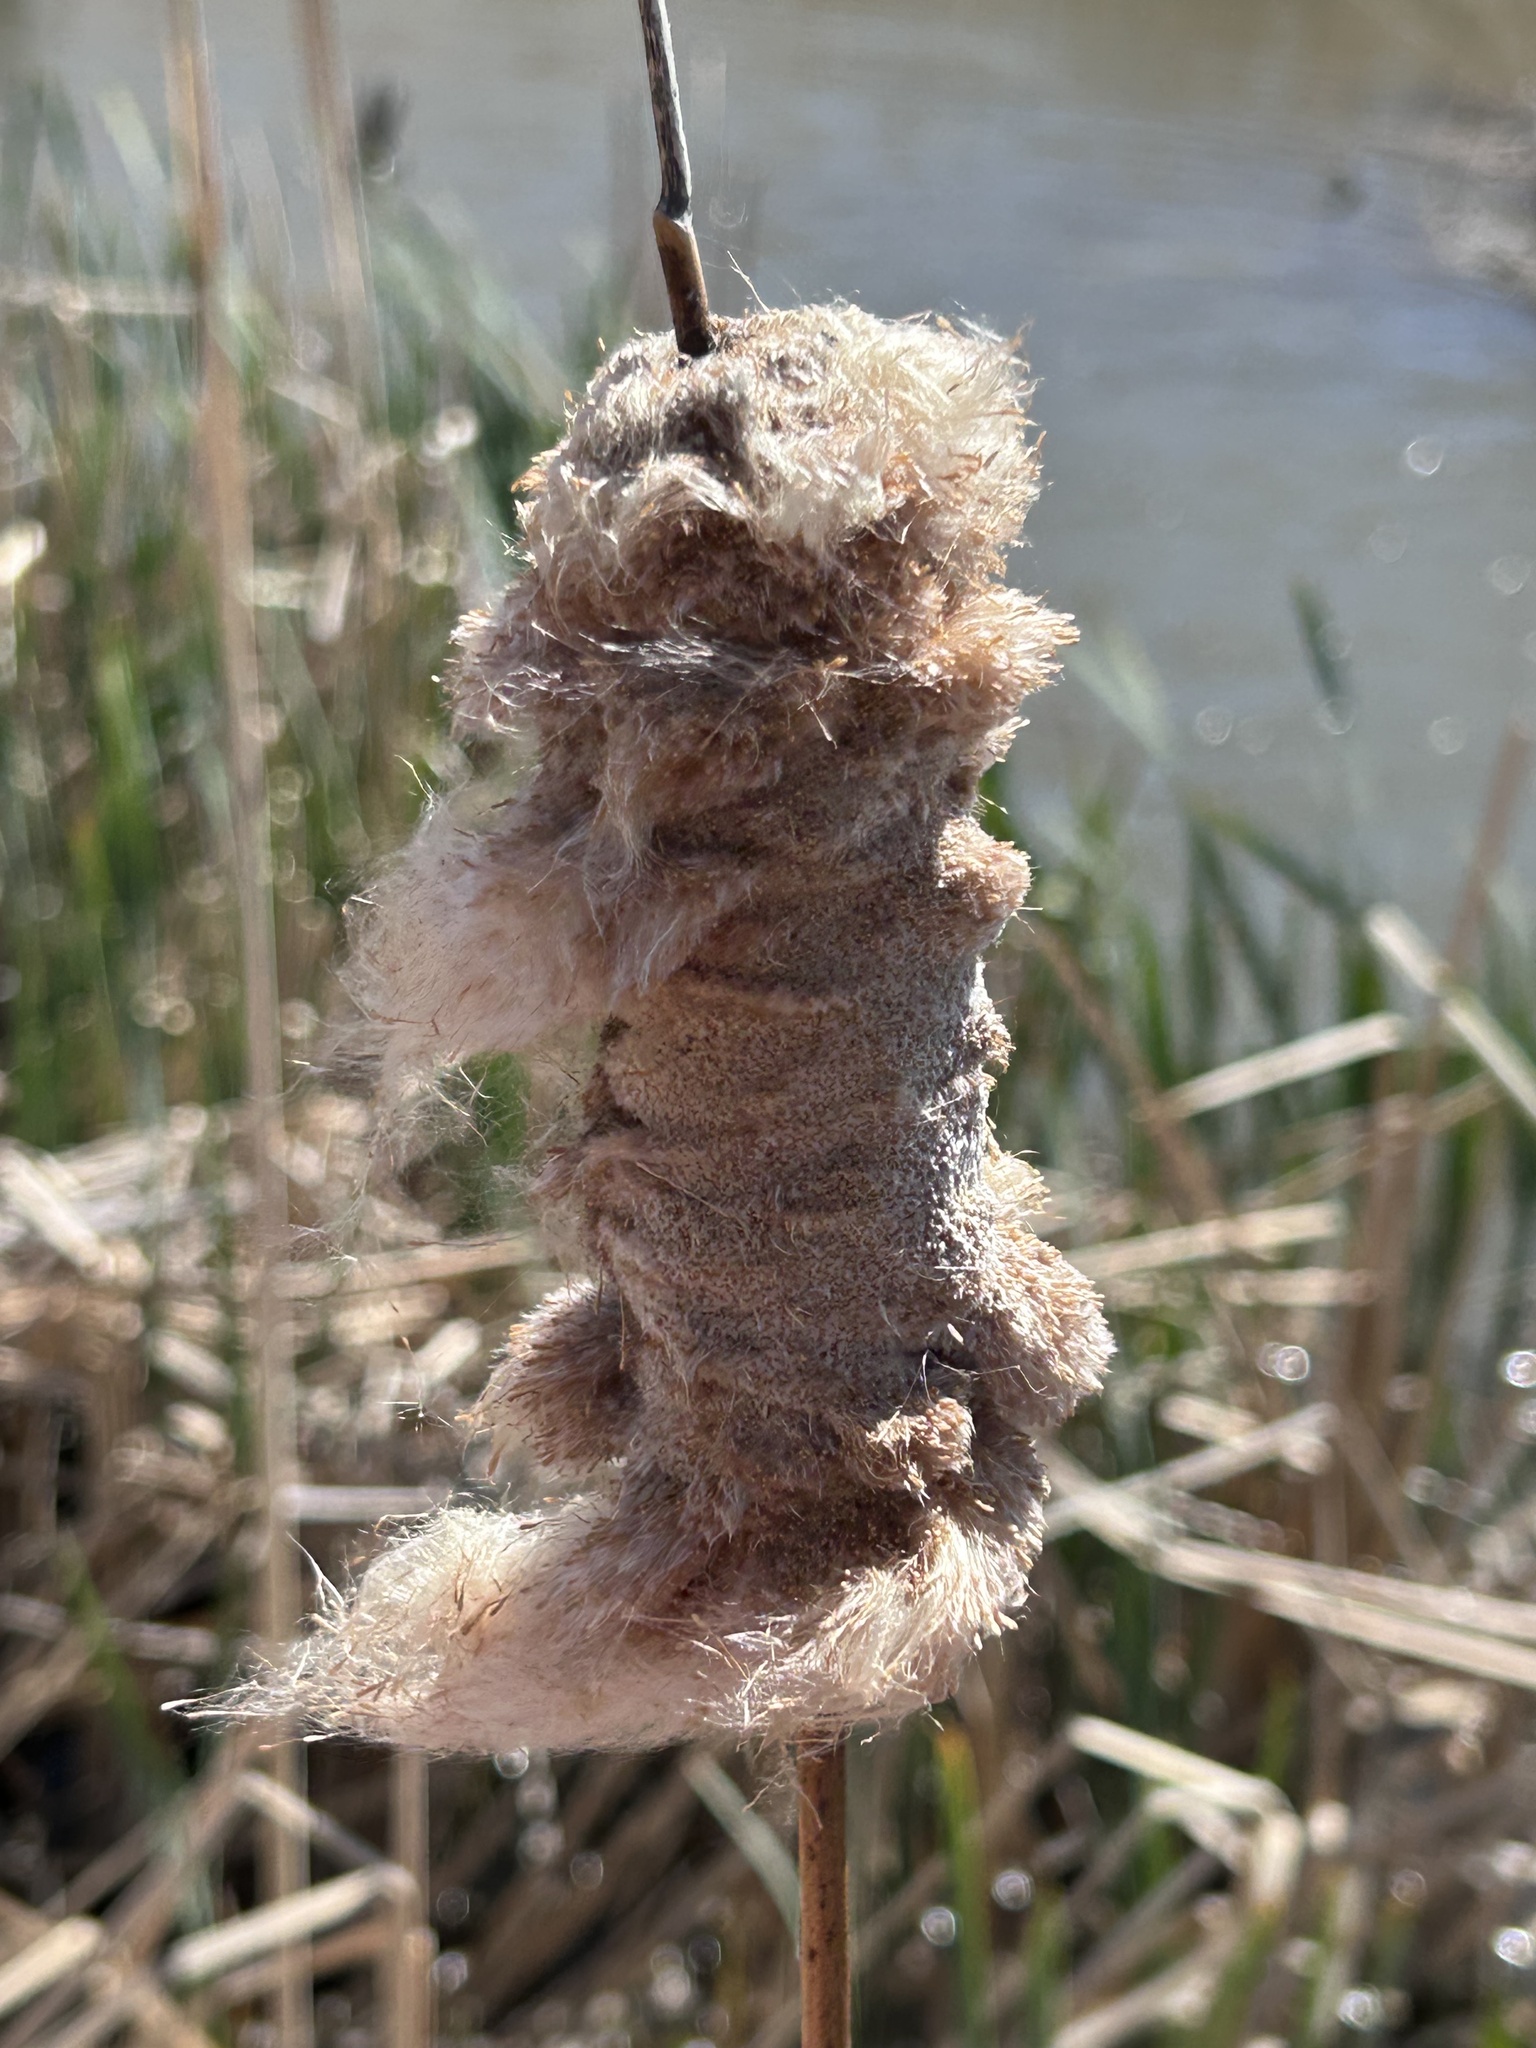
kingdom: Plantae
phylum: Tracheophyta
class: Liliopsida
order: Poales
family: Typhaceae
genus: Typha
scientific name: Typha latifolia
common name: Broadleaf cattail
